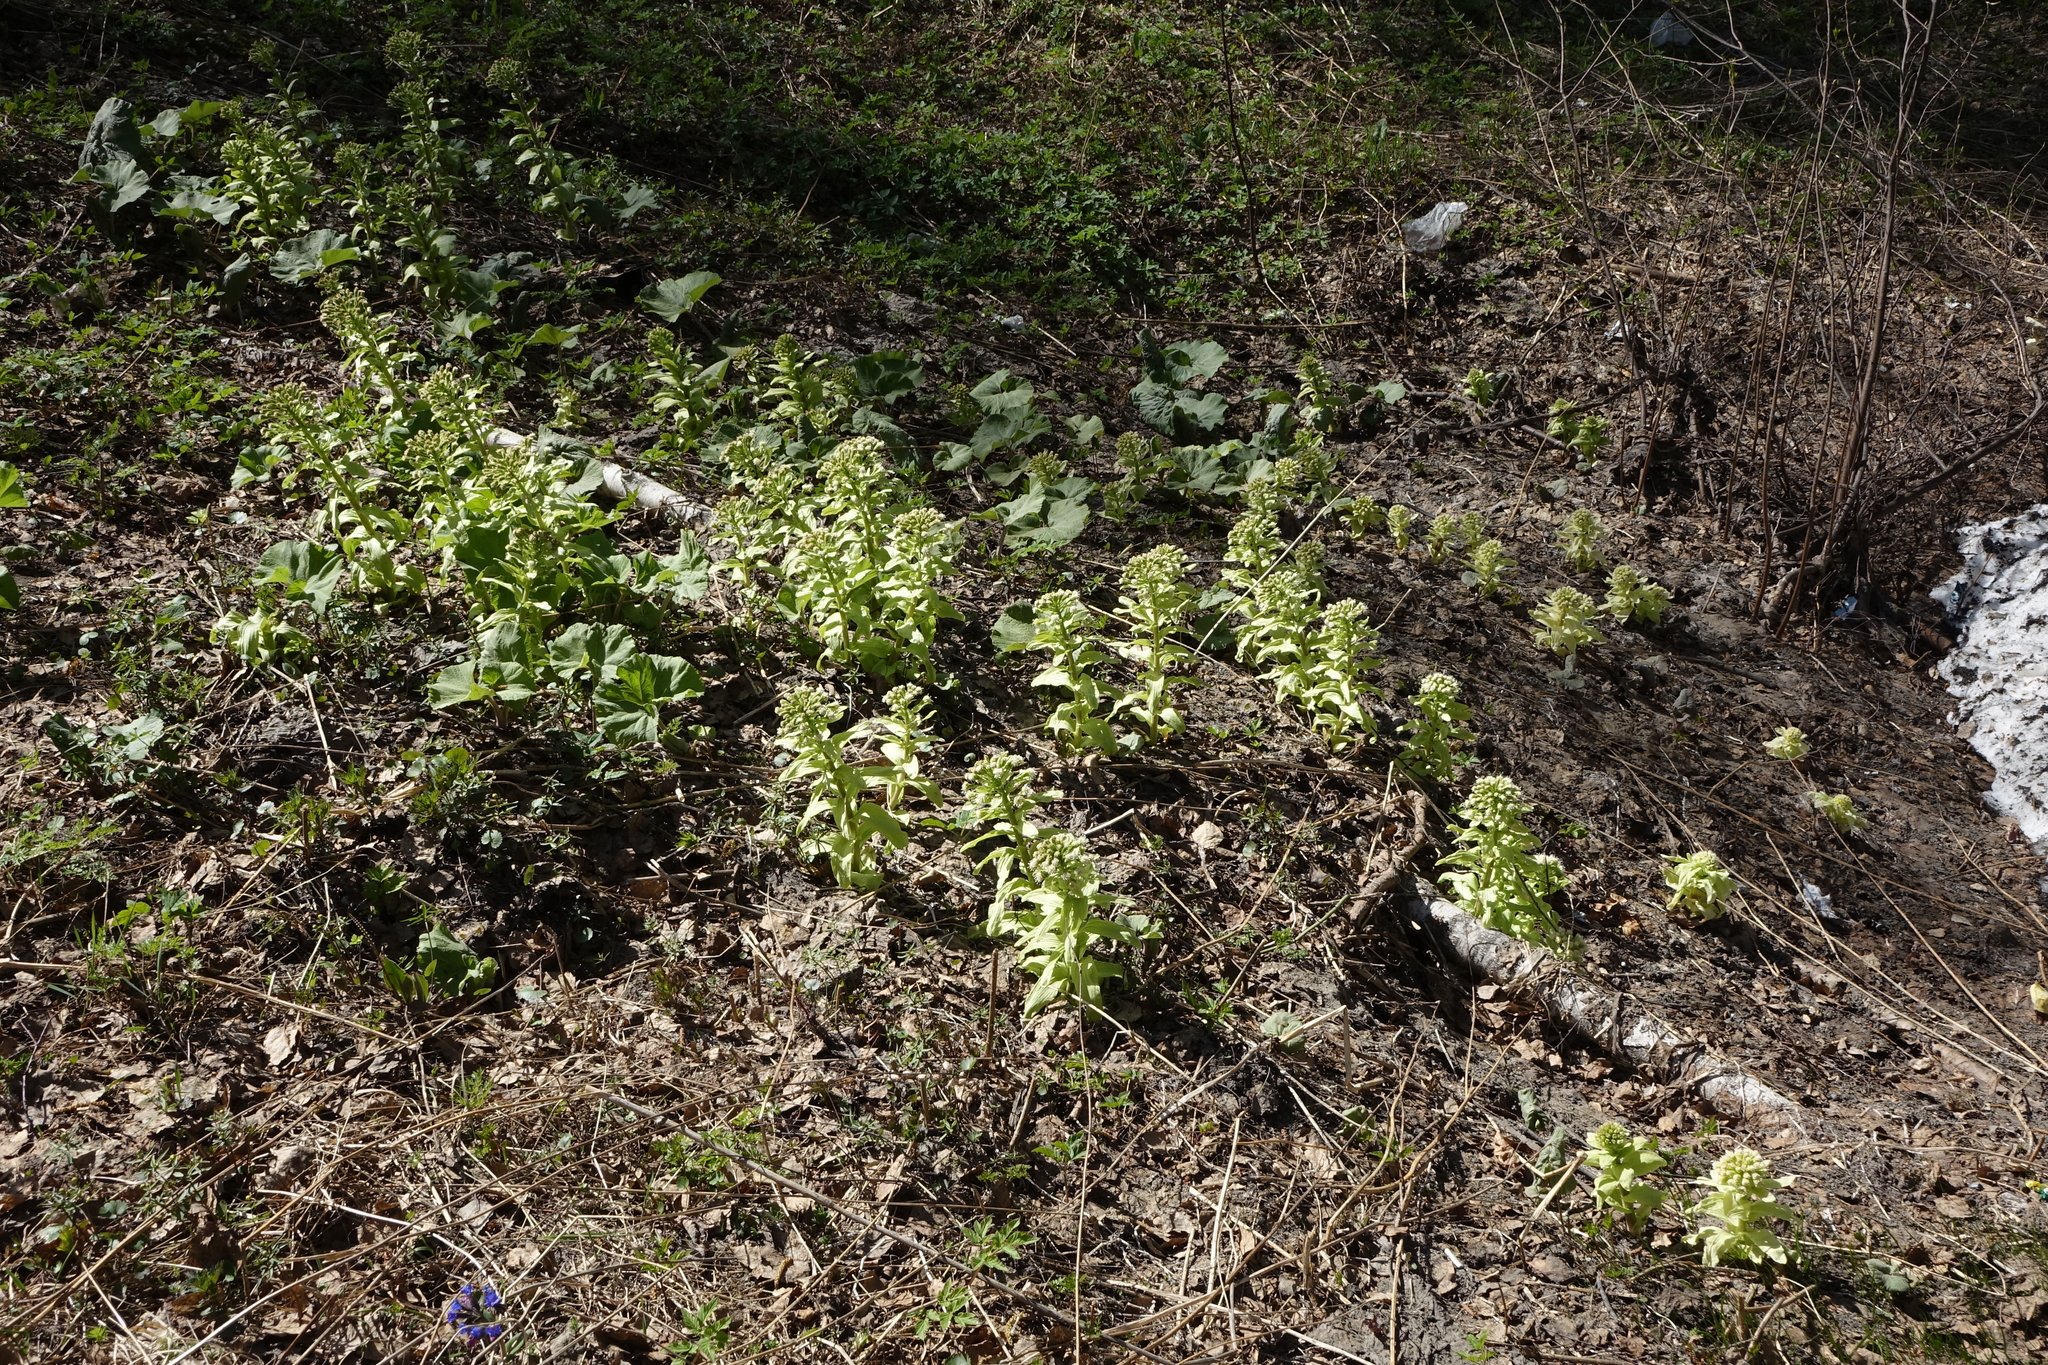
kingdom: Plantae
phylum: Tracheophyta
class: Magnoliopsida
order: Asterales
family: Asteraceae
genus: Petasites
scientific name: Petasites japonicus
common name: Giant butterbur
